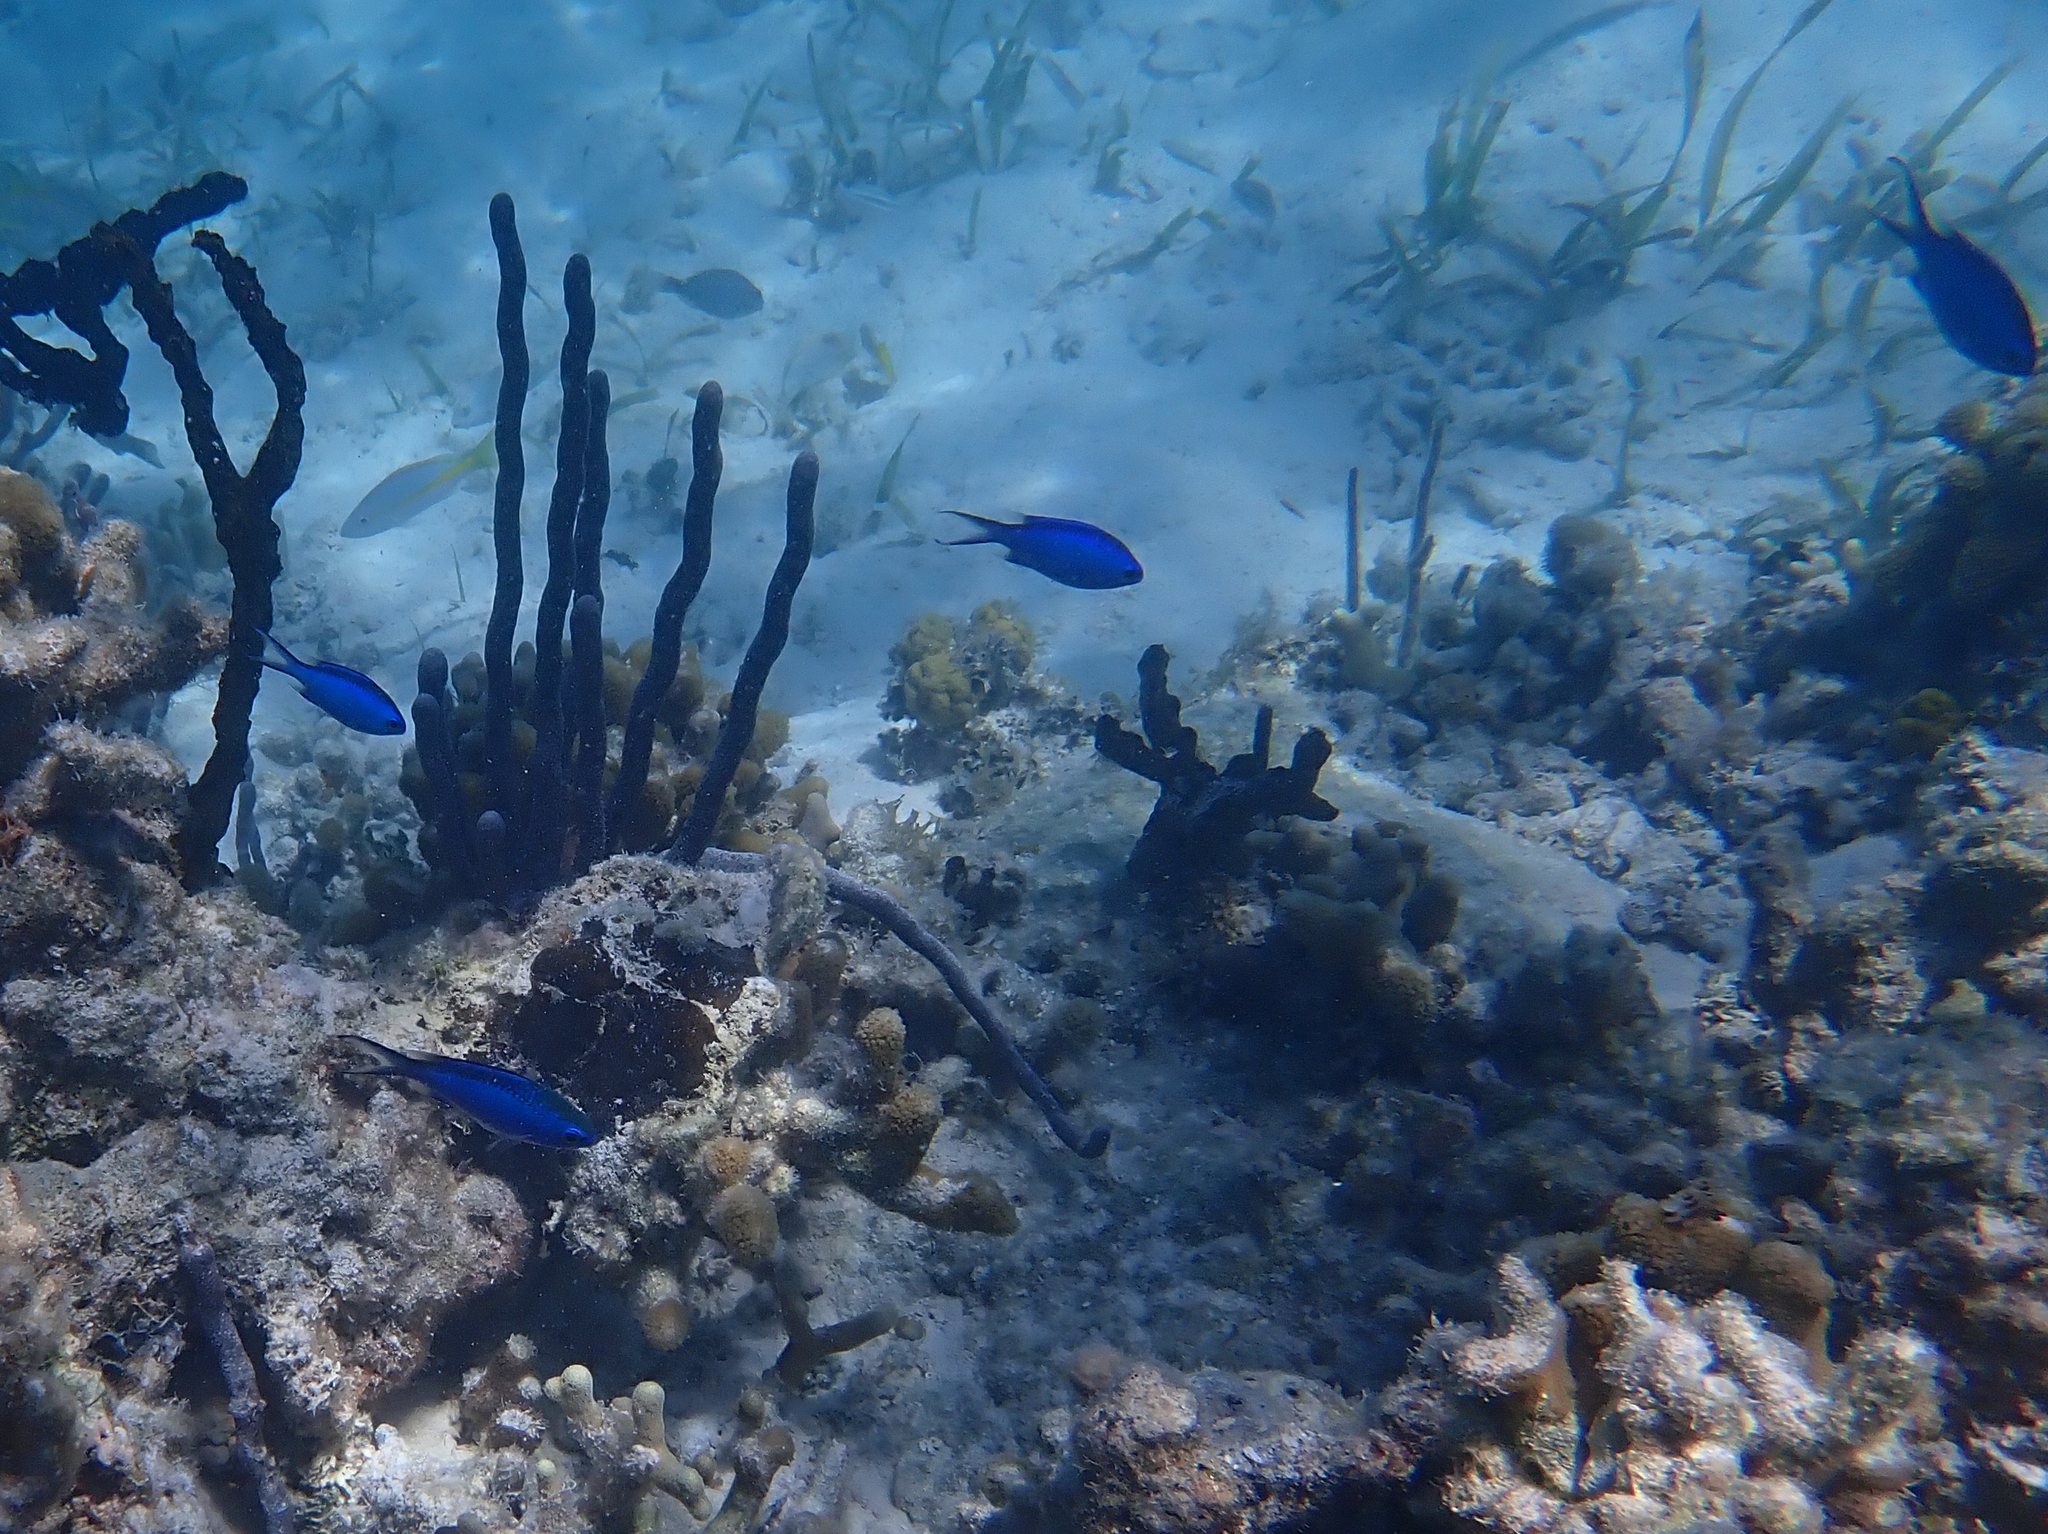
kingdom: Animalia
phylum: Chordata
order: Perciformes
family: Pomacentridae
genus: Chromis
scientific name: Chromis cyanea
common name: Blue chromis
